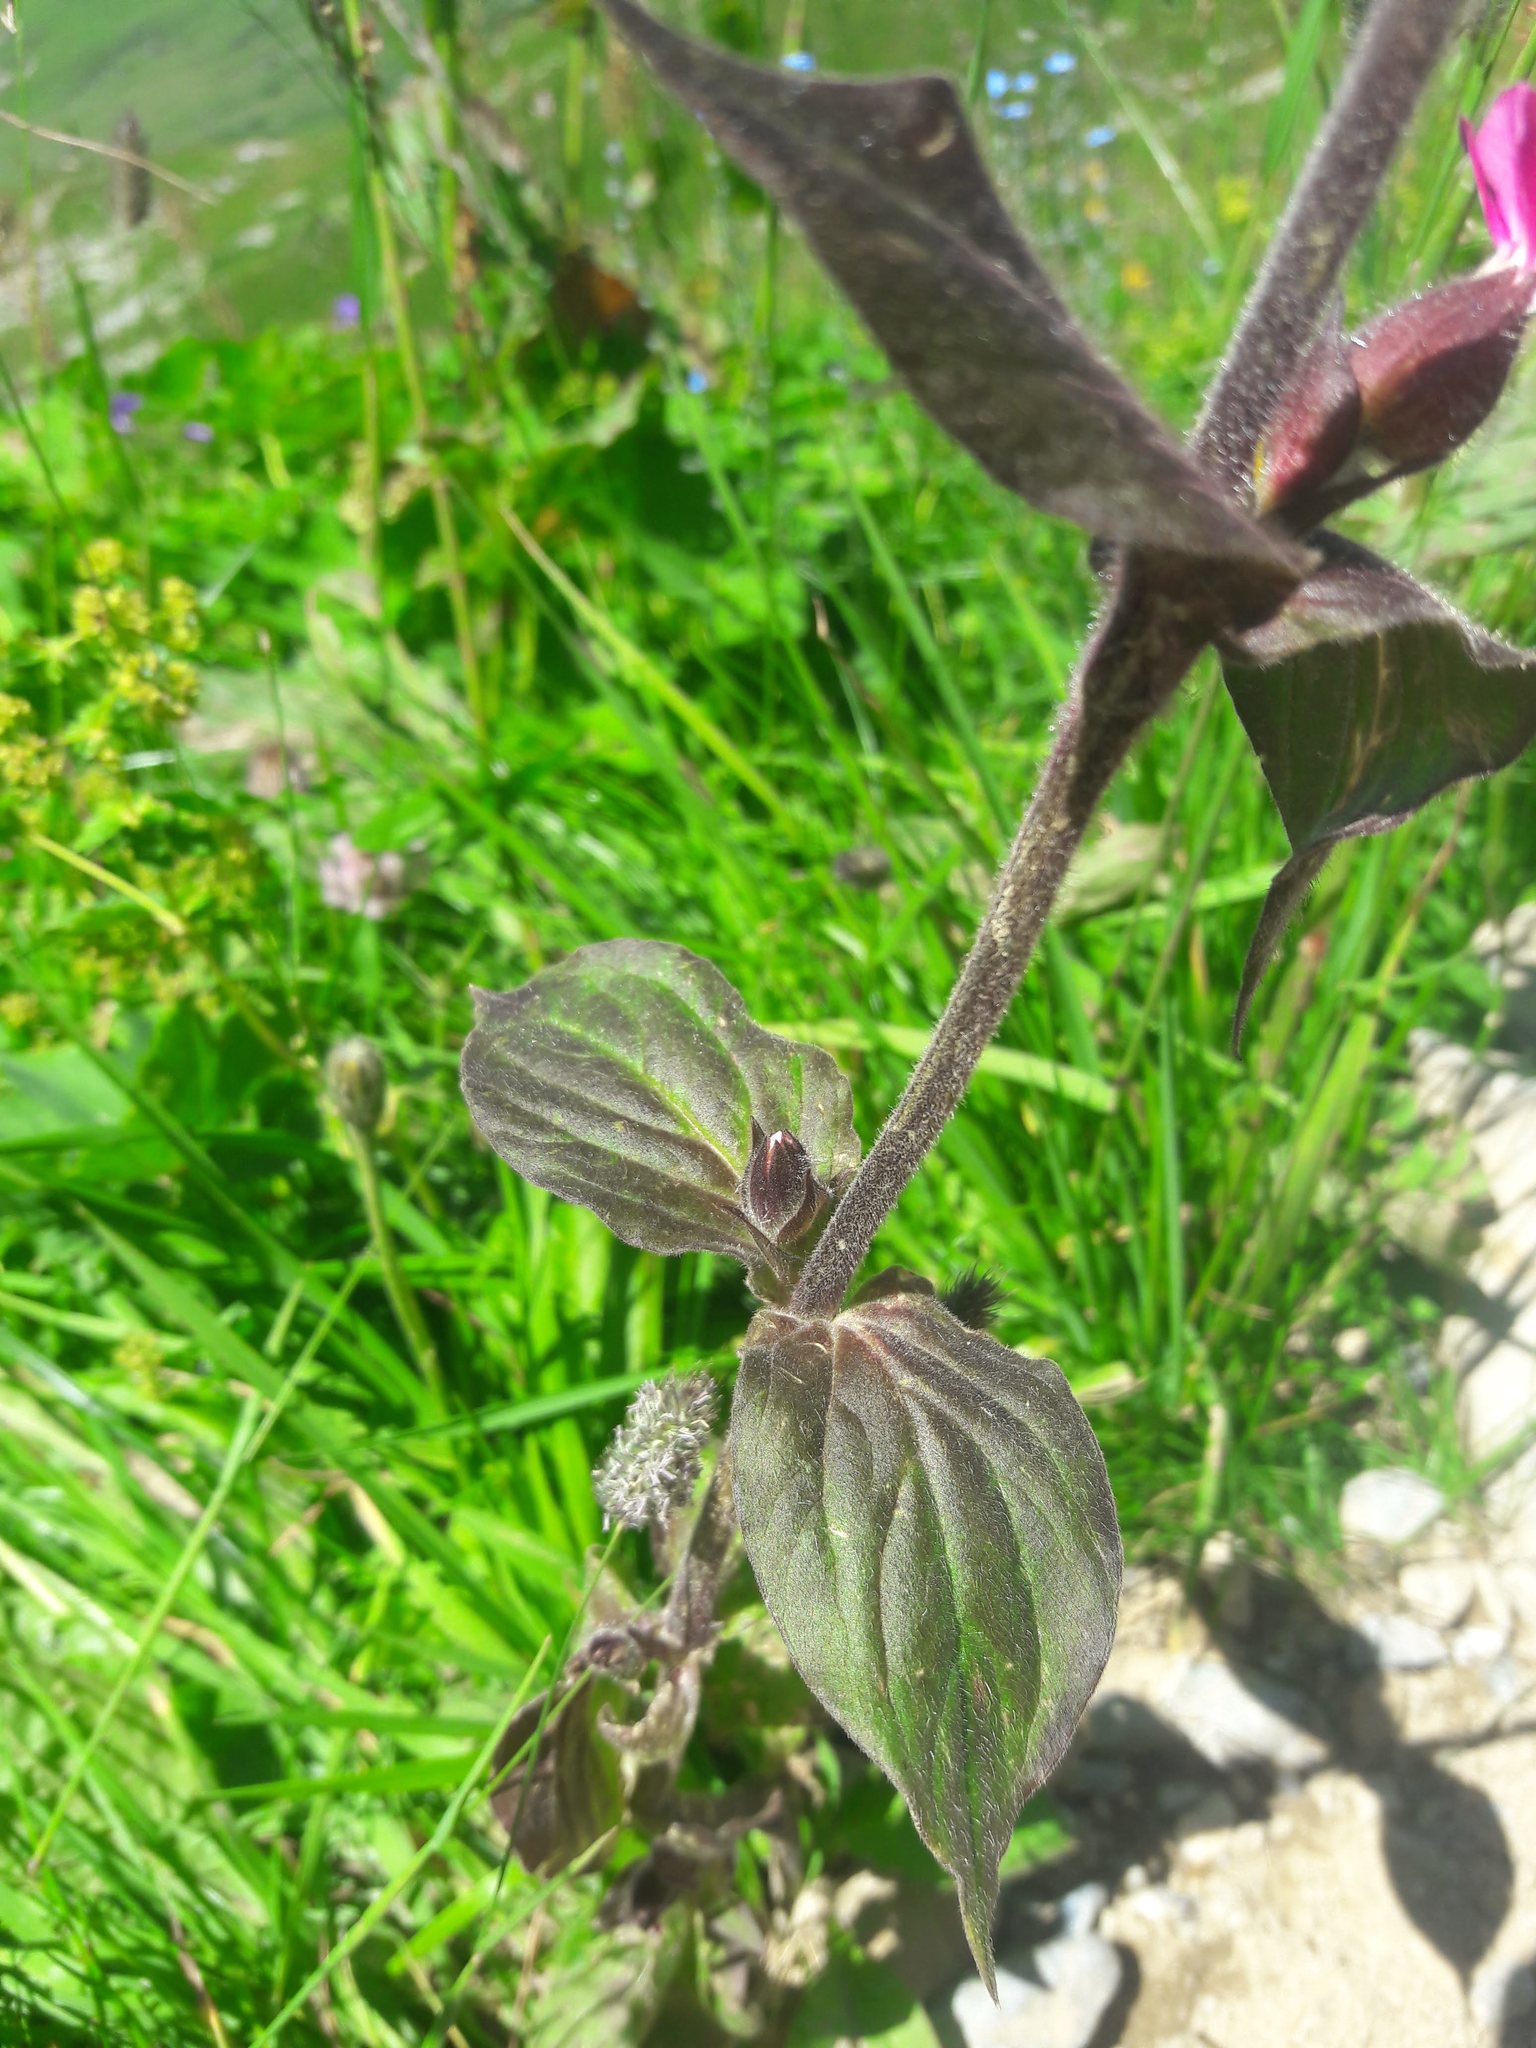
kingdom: Plantae
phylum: Tracheophyta
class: Magnoliopsida
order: Caryophyllales
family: Caryophyllaceae
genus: Silene
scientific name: Silene dioica
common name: Red campion
